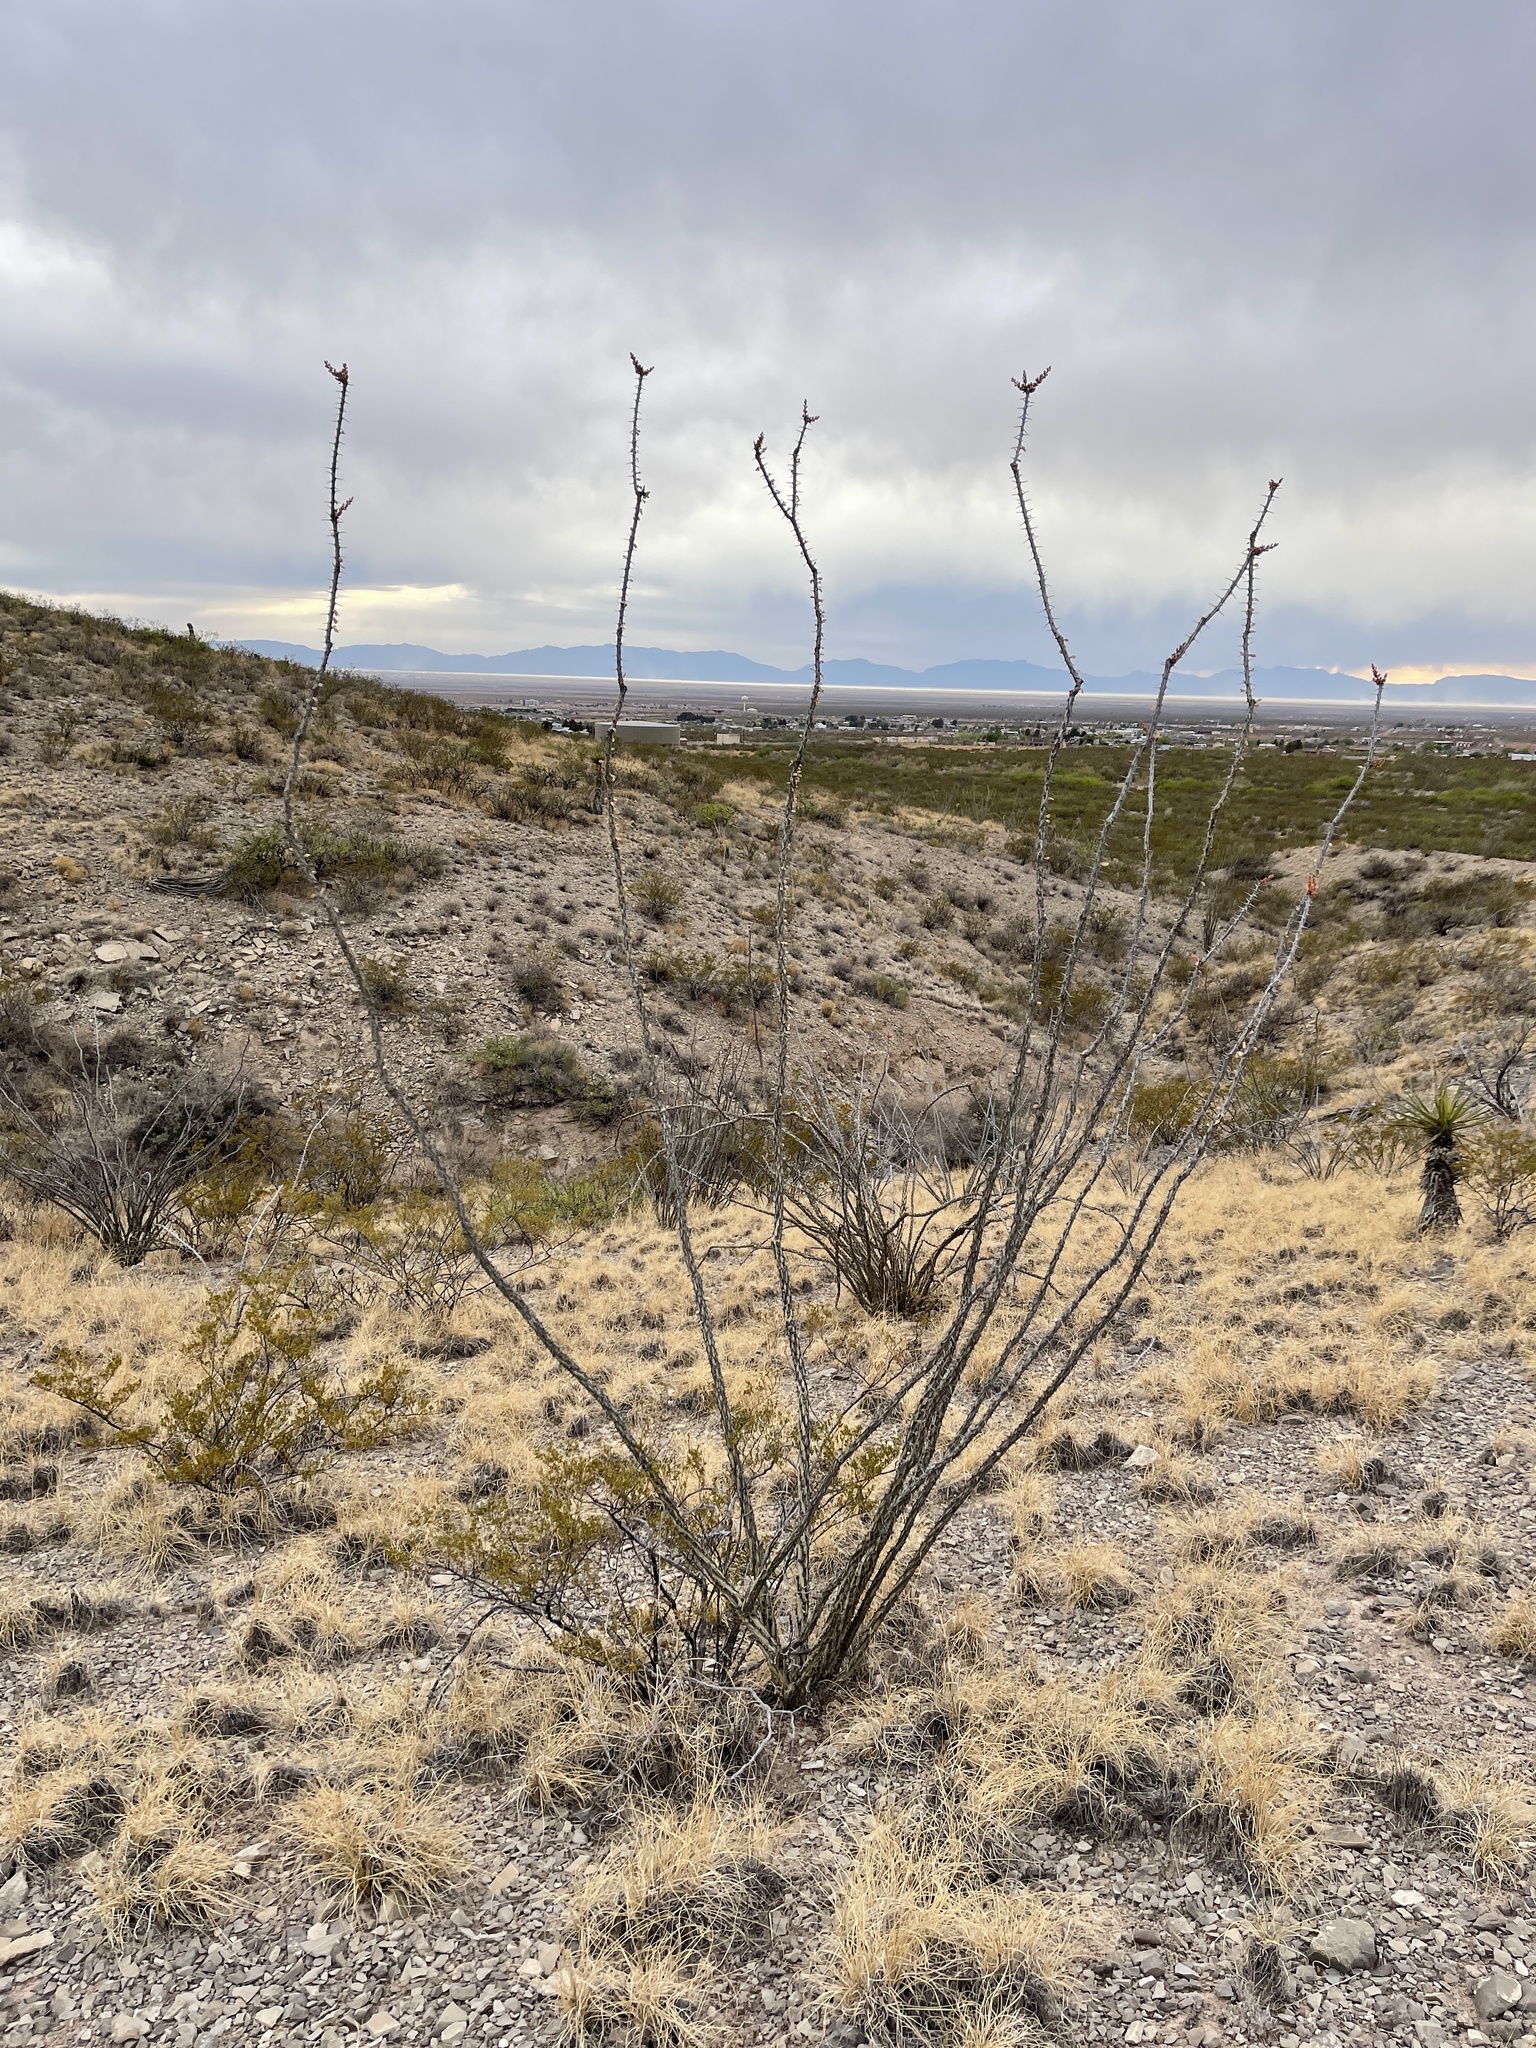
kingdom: Plantae
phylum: Tracheophyta
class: Magnoliopsida
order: Ericales
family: Fouquieriaceae
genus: Fouquieria
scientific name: Fouquieria splendens
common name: Vine-cactus
